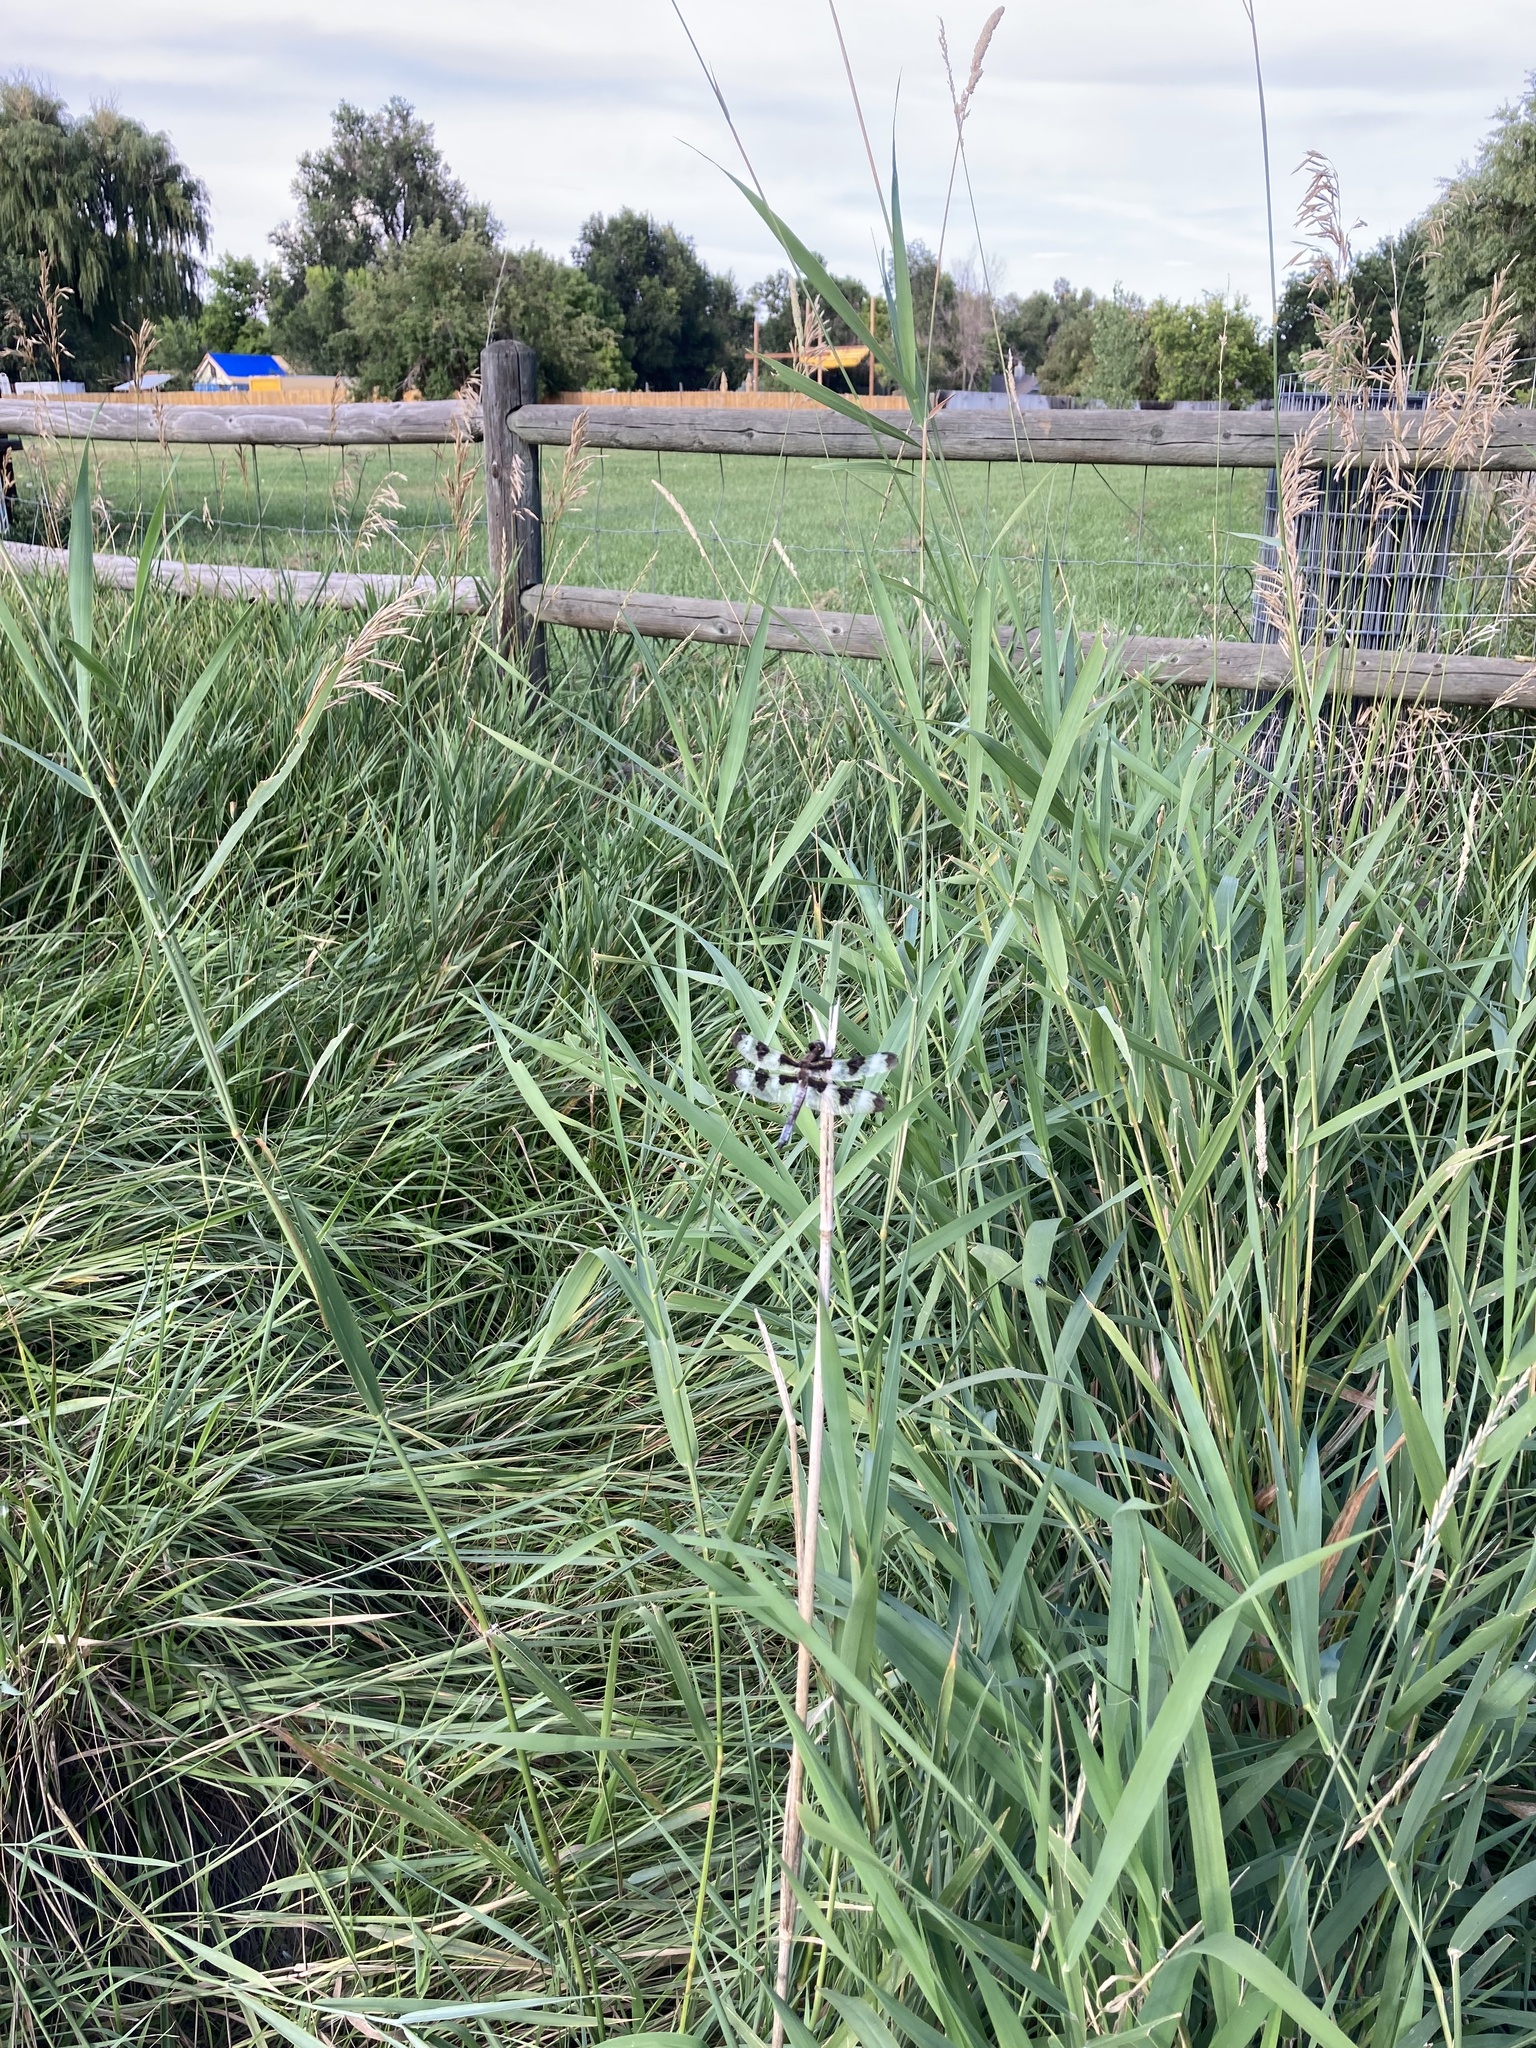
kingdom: Animalia
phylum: Arthropoda
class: Insecta
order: Odonata
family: Libellulidae
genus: Libellula
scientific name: Libellula pulchella
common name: Twelve-spotted skimmer
